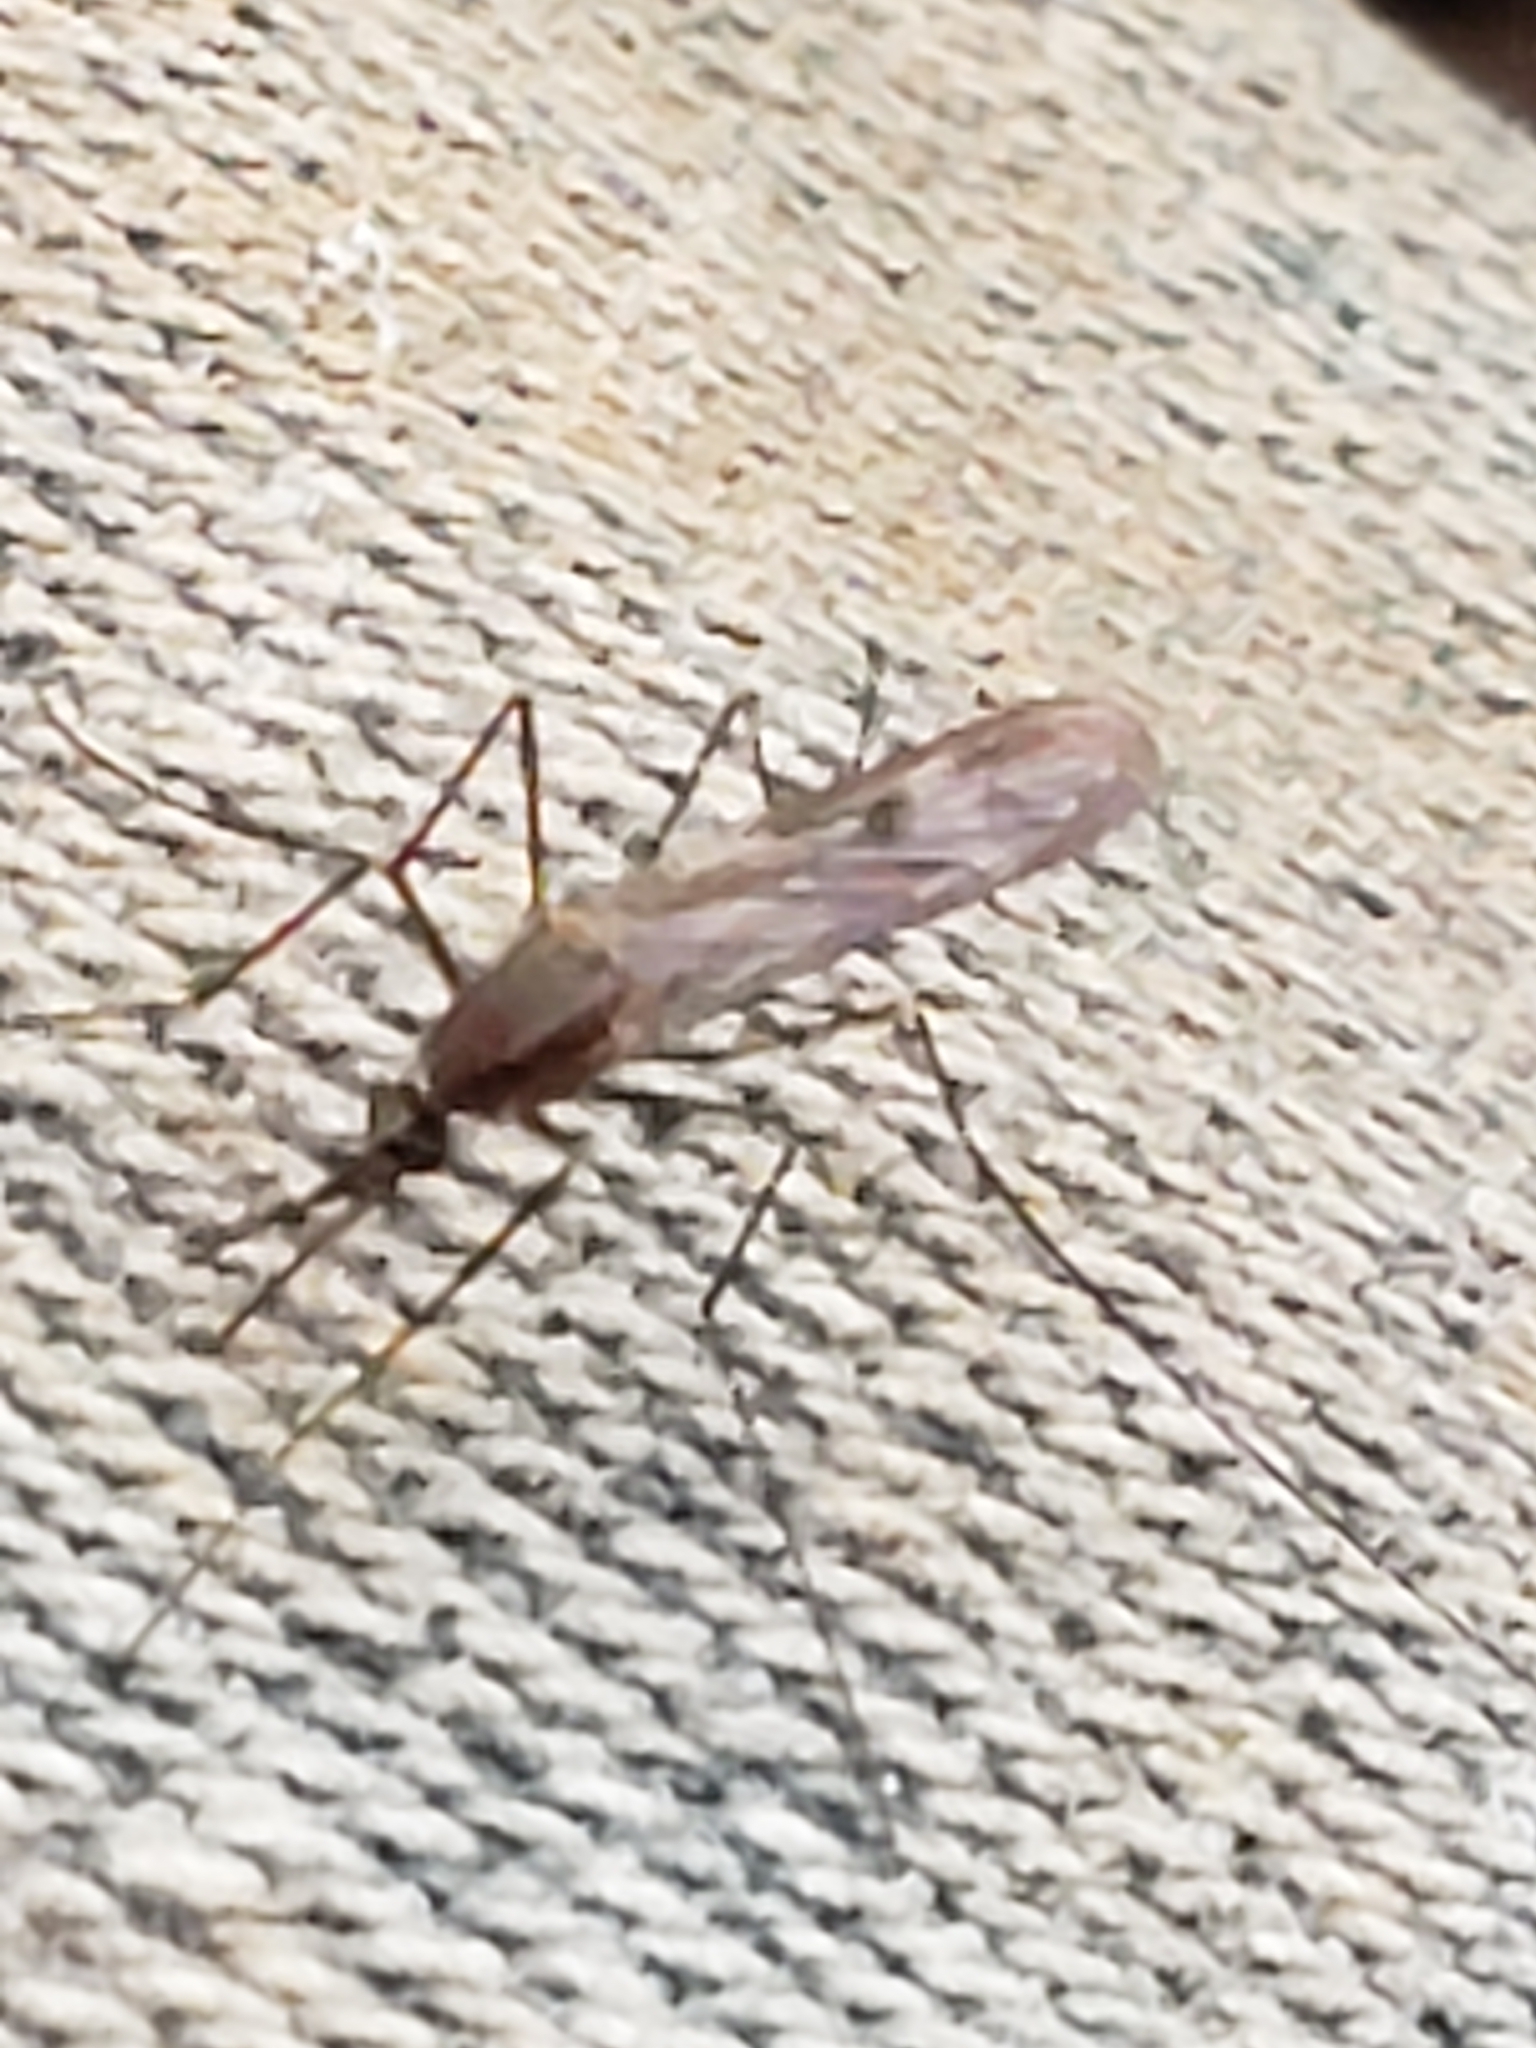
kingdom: Animalia
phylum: Arthropoda
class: Insecta
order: Diptera
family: Culicidae
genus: Anopheles
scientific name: Anopheles
